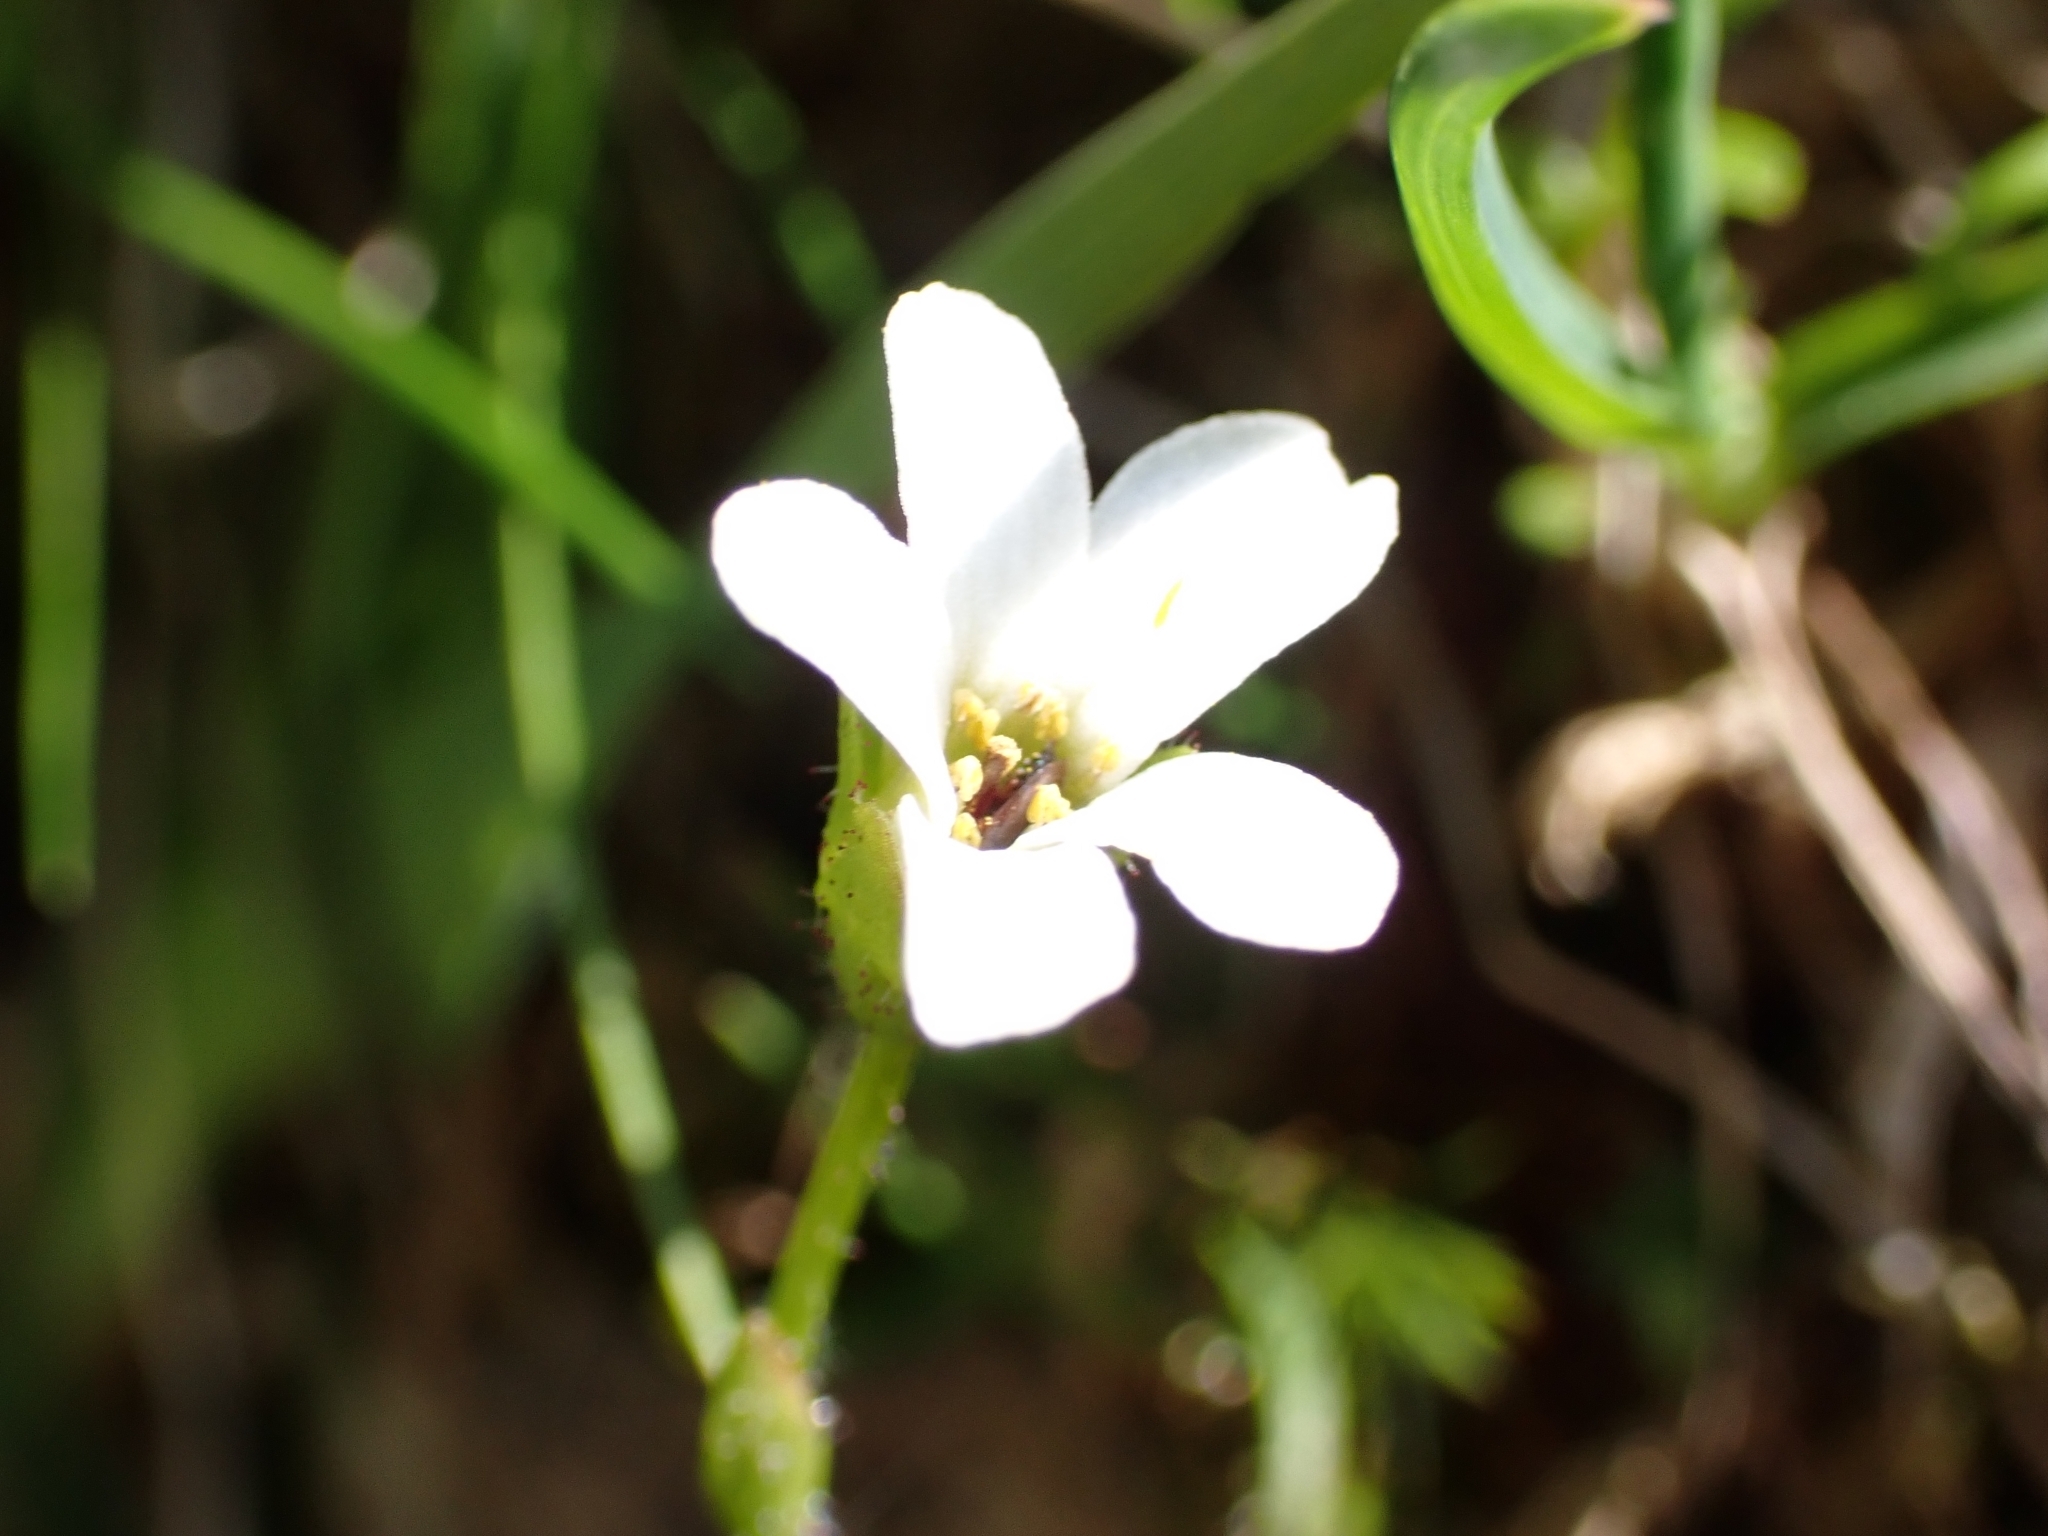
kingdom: Plantae
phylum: Tracheophyta
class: Magnoliopsida
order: Saxifragales
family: Saxifragaceae
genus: Saxifraga
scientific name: Saxifraga androsacea
